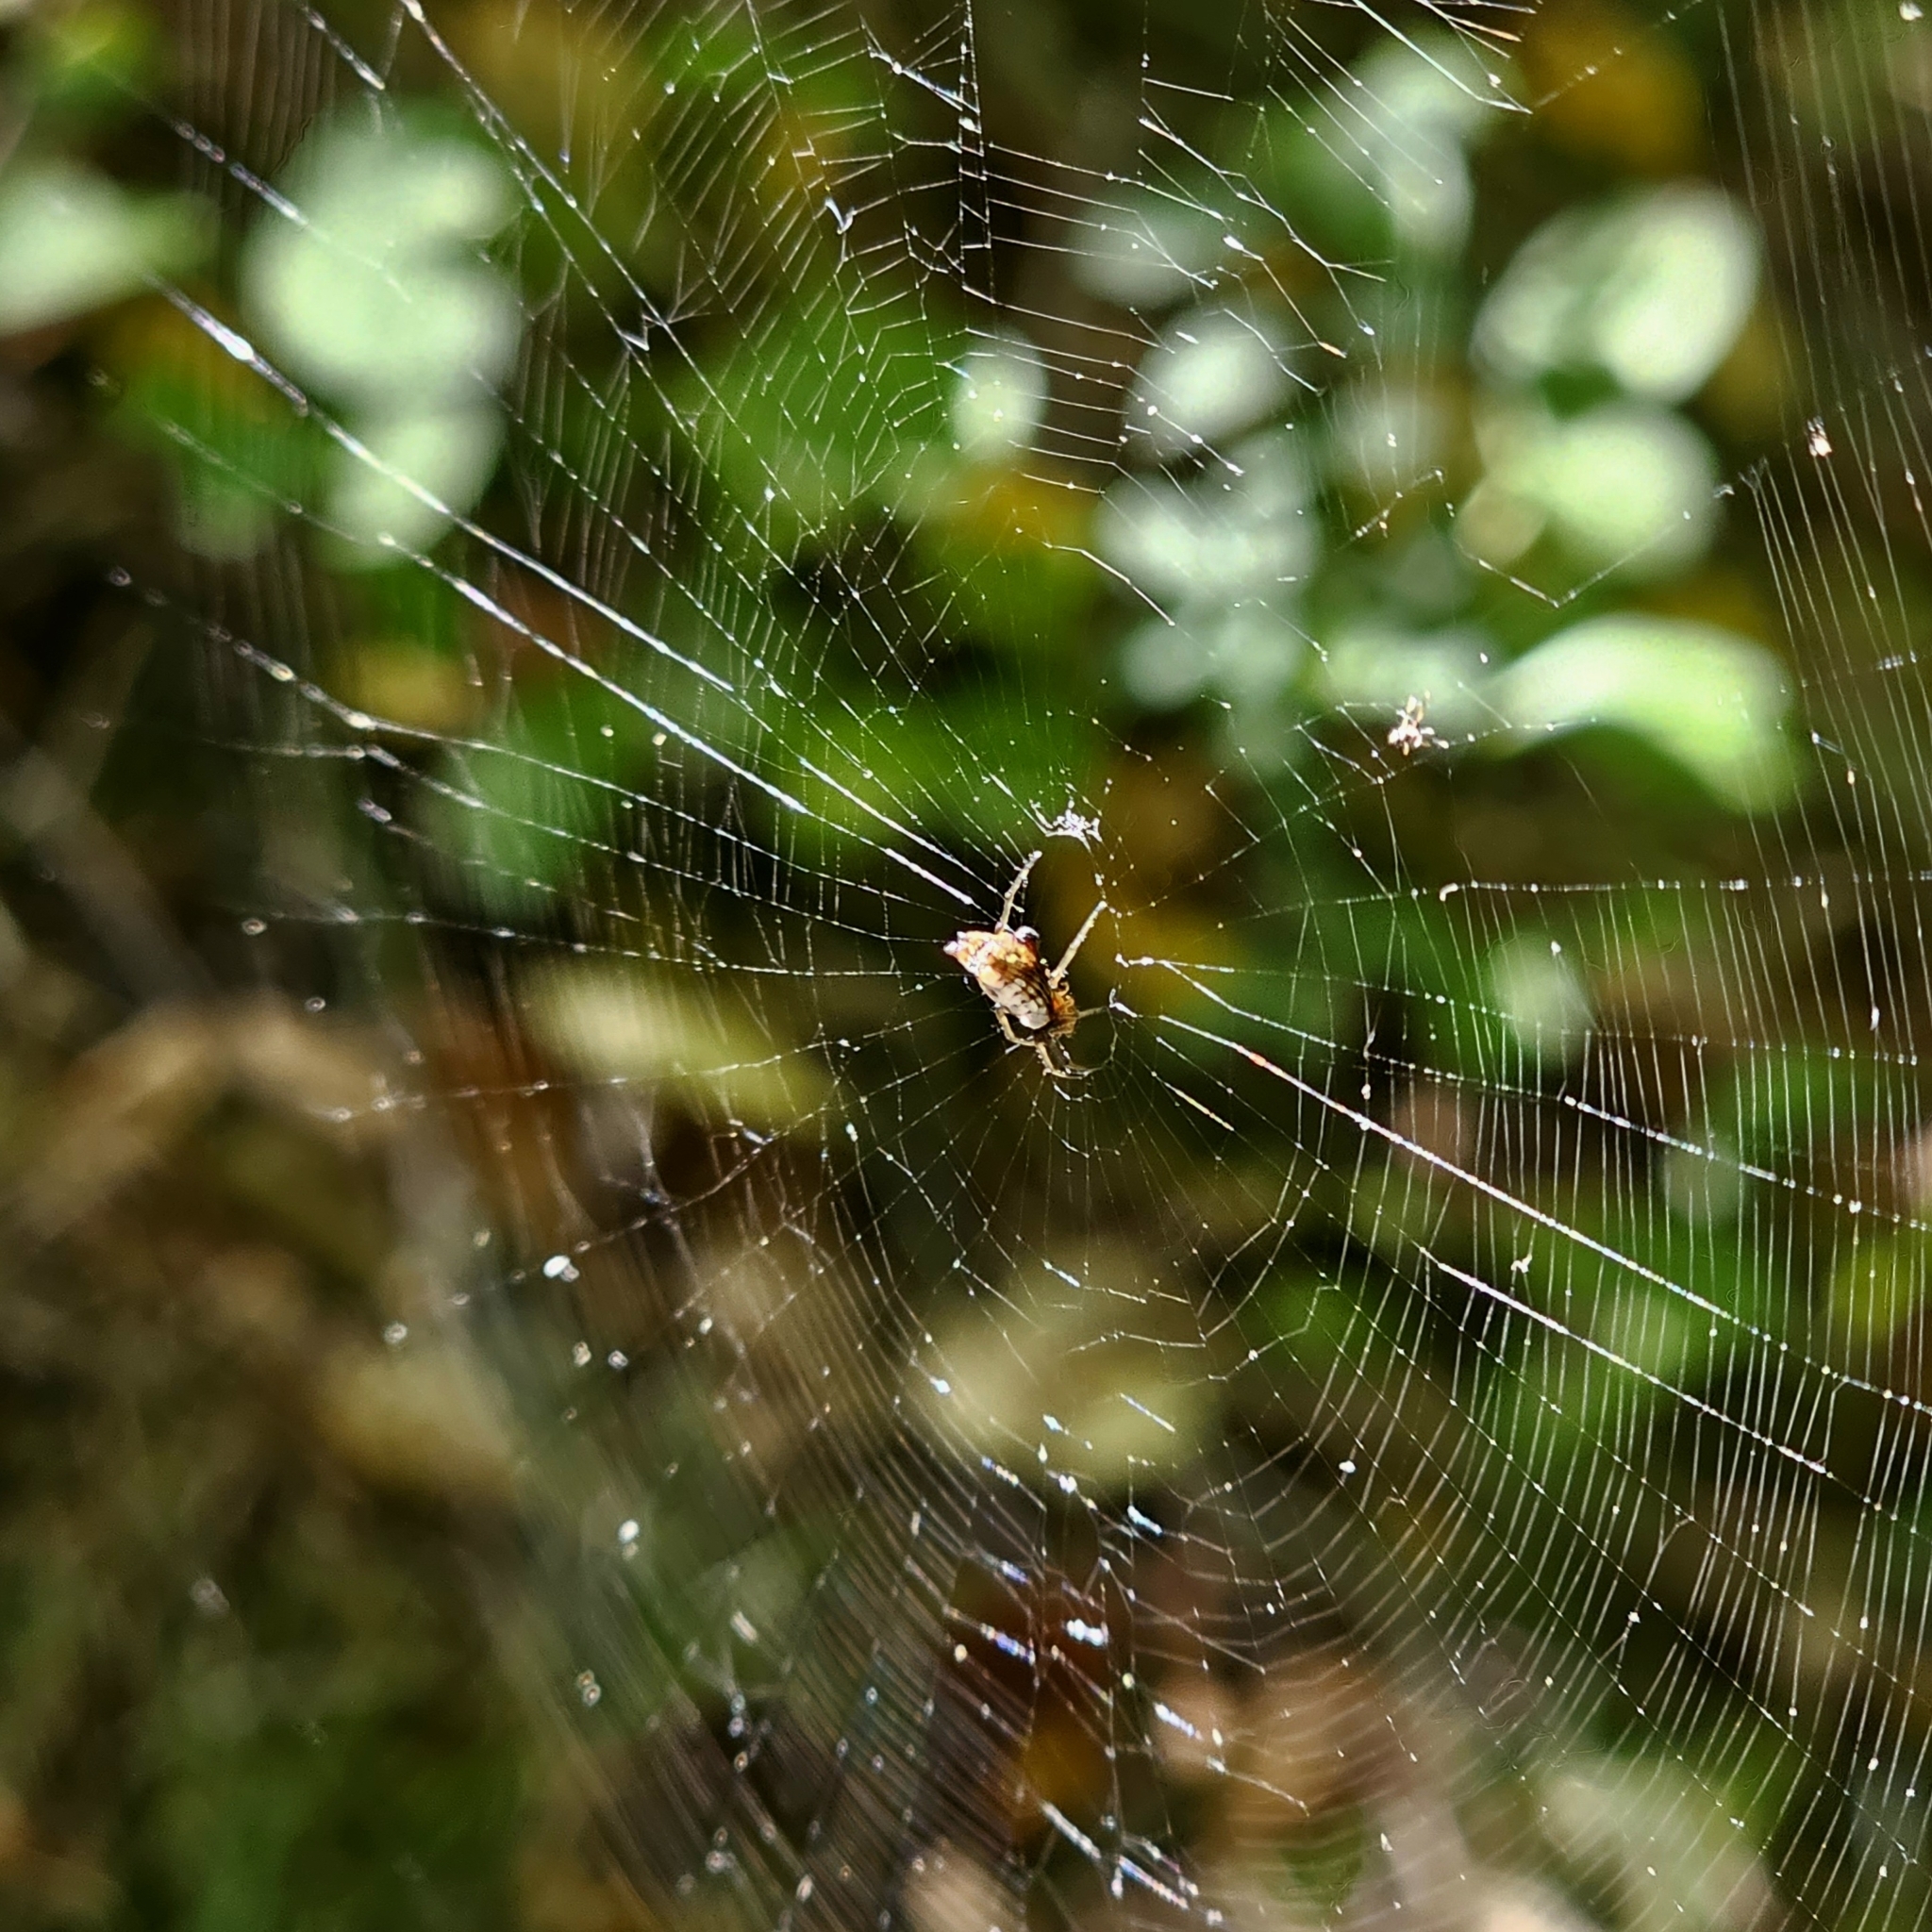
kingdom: Animalia
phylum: Arthropoda
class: Arachnida
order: Araneae
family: Araneidae
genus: Micrathena
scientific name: Micrathena mitrata
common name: Orb weavers
